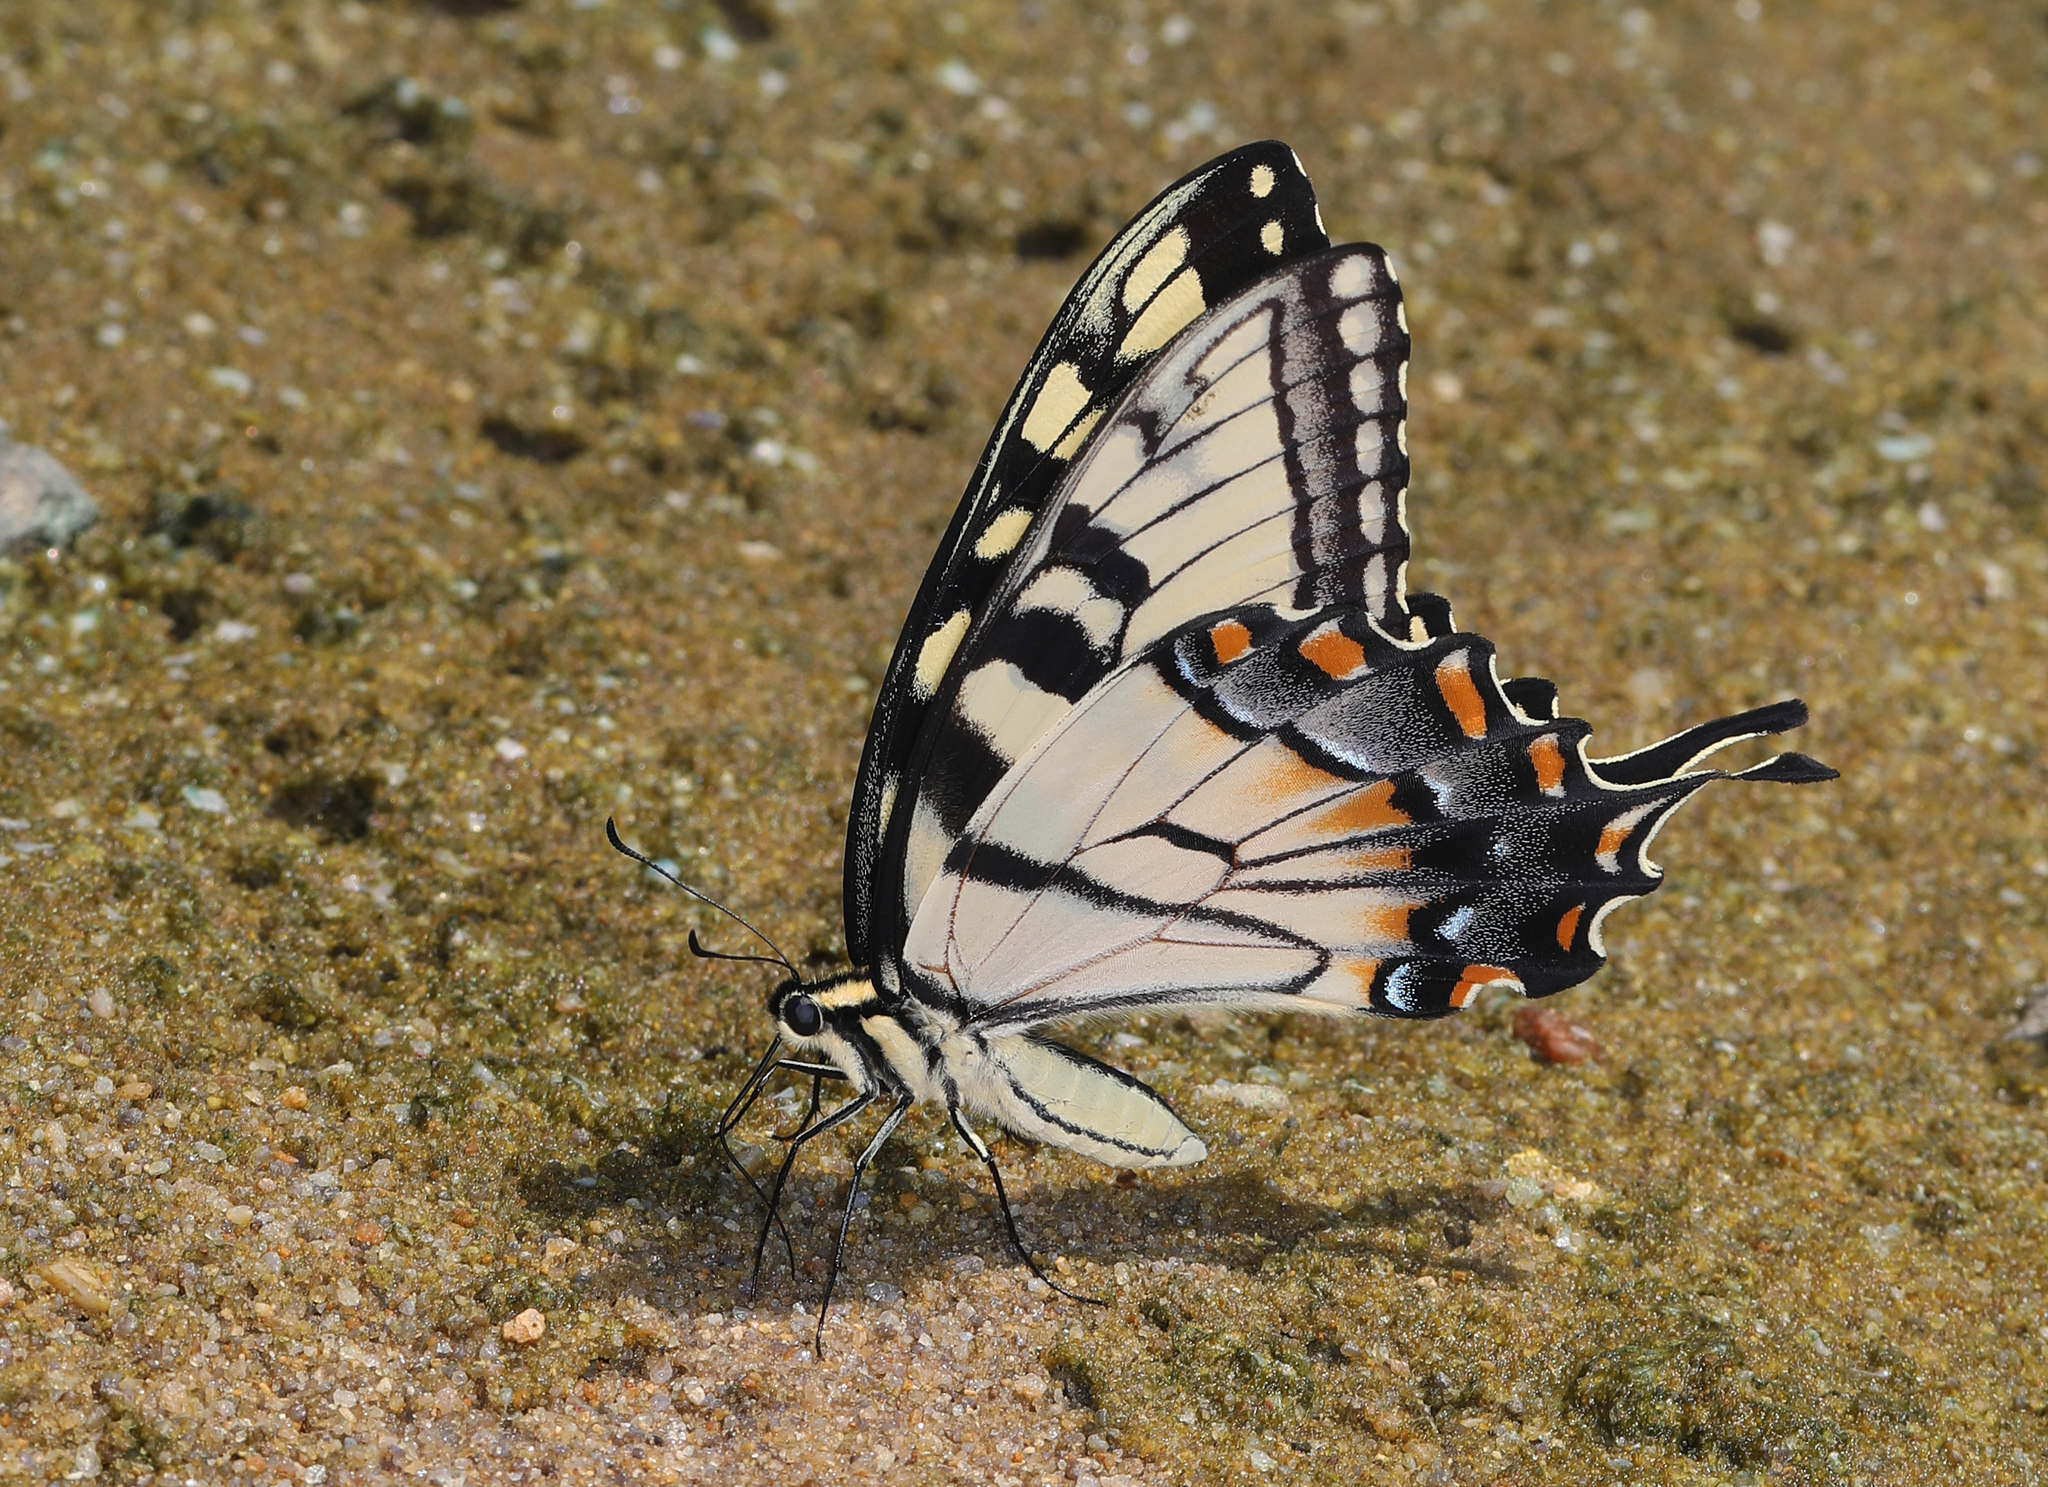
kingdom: Animalia
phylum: Arthropoda
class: Insecta
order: Lepidoptera
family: Papilionidae
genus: Papilio
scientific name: Papilio glaucus
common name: Tiger swallowtail
